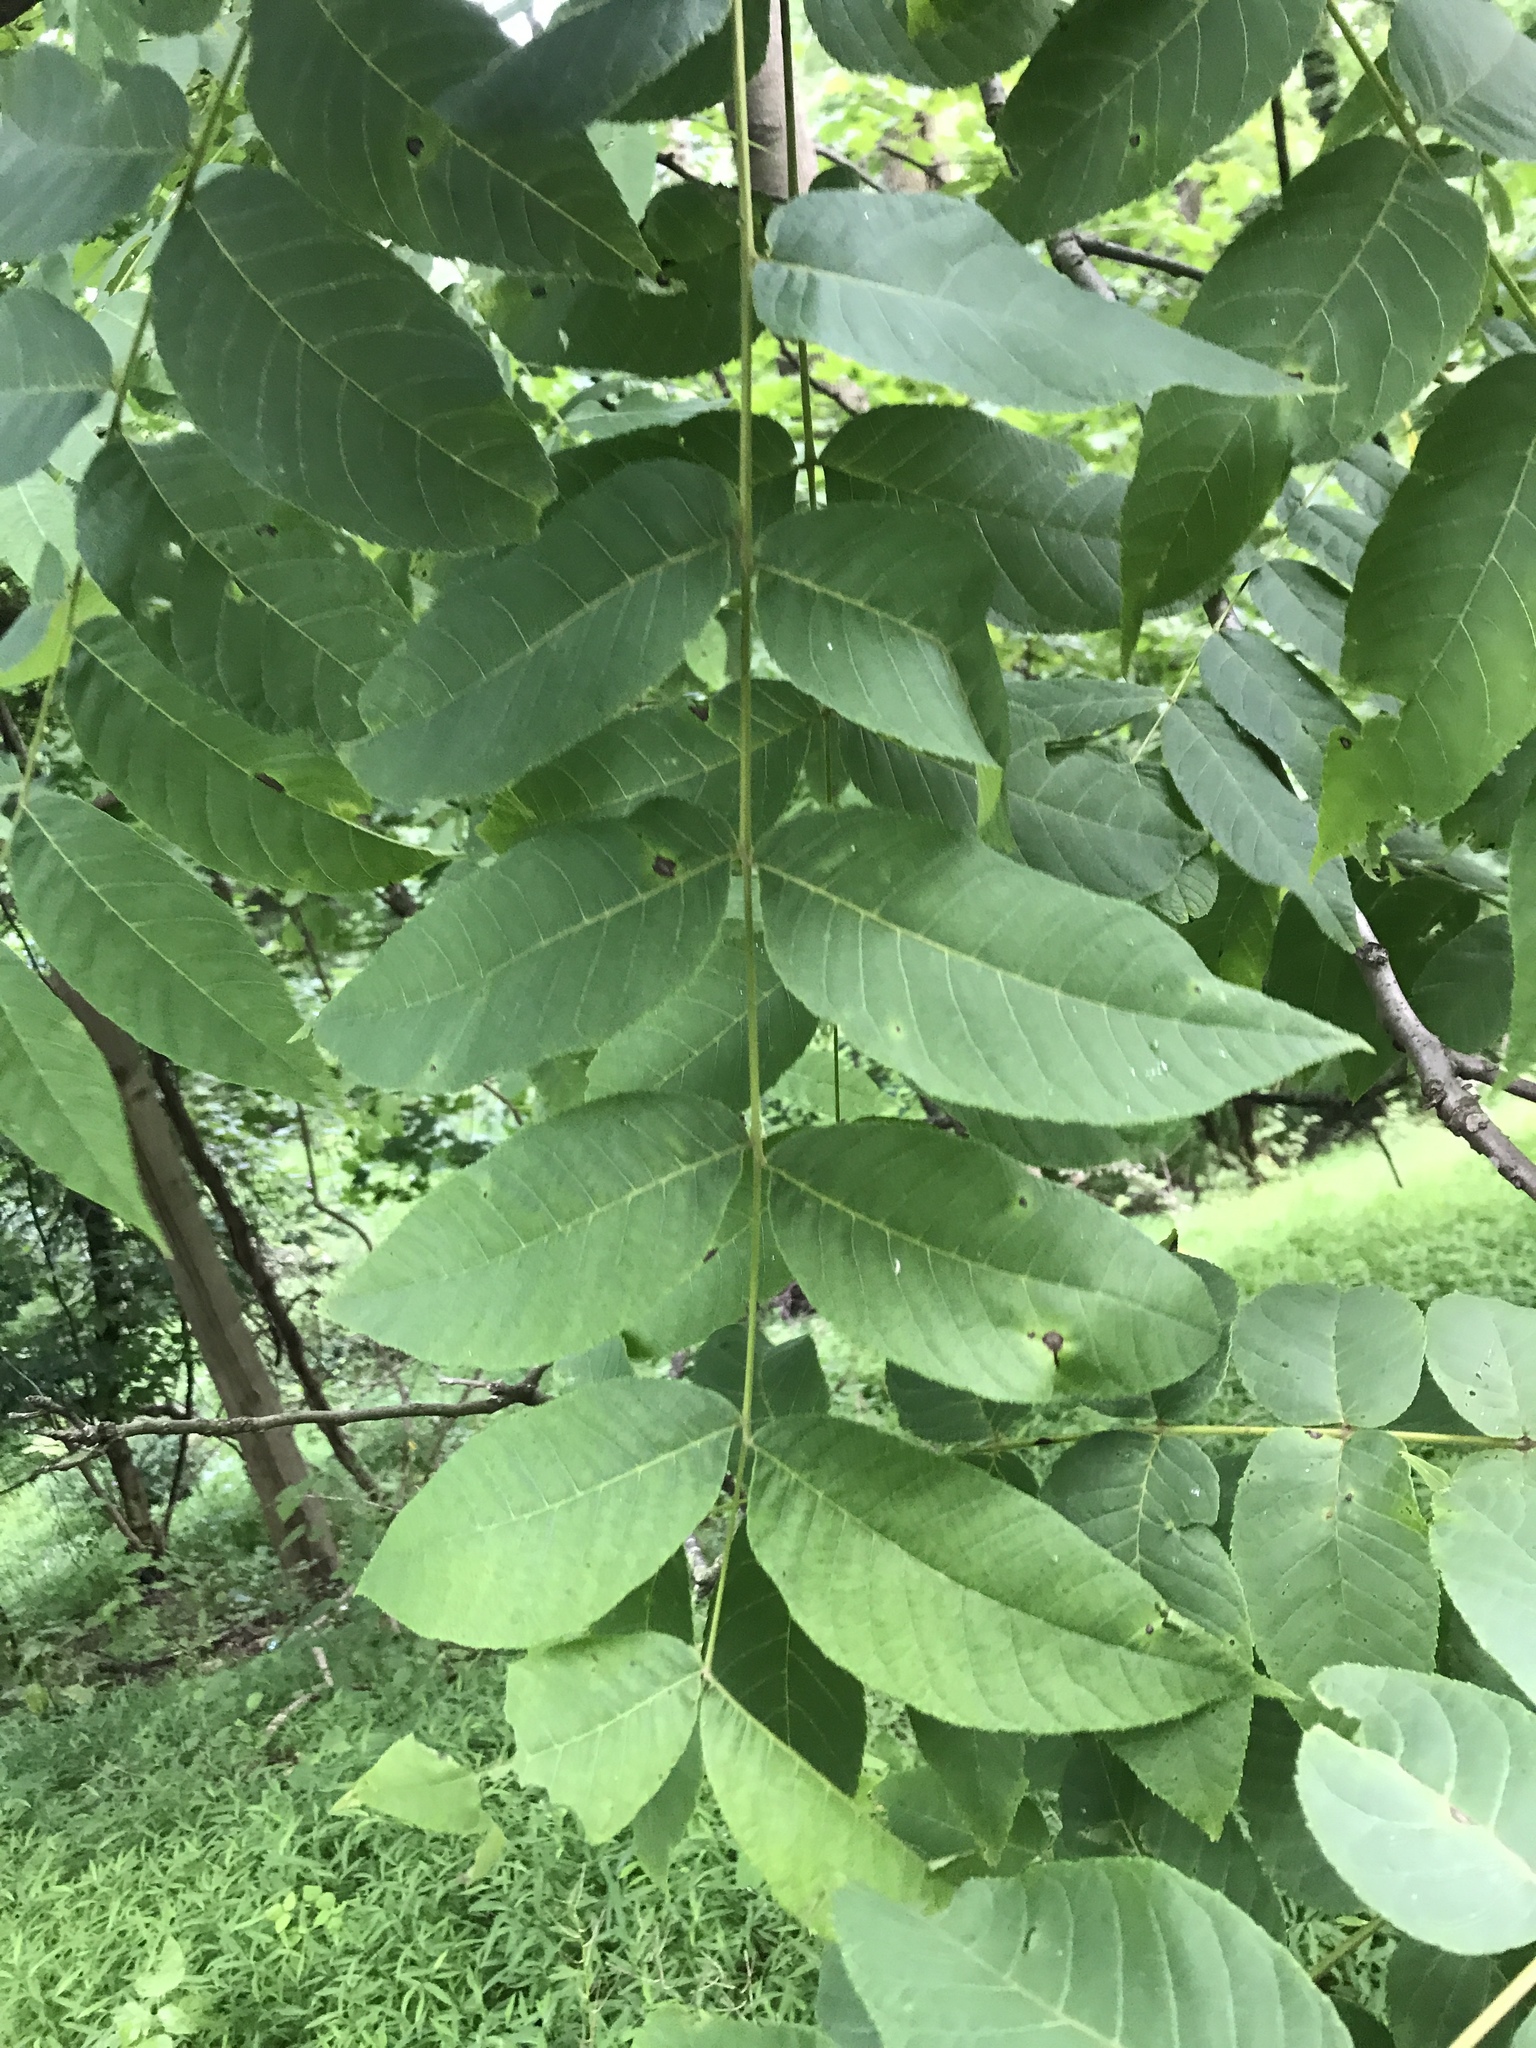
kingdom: Plantae
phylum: Tracheophyta
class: Magnoliopsida
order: Fagales
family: Juglandaceae
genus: Juglans
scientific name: Juglans nigra
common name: Black walnut
